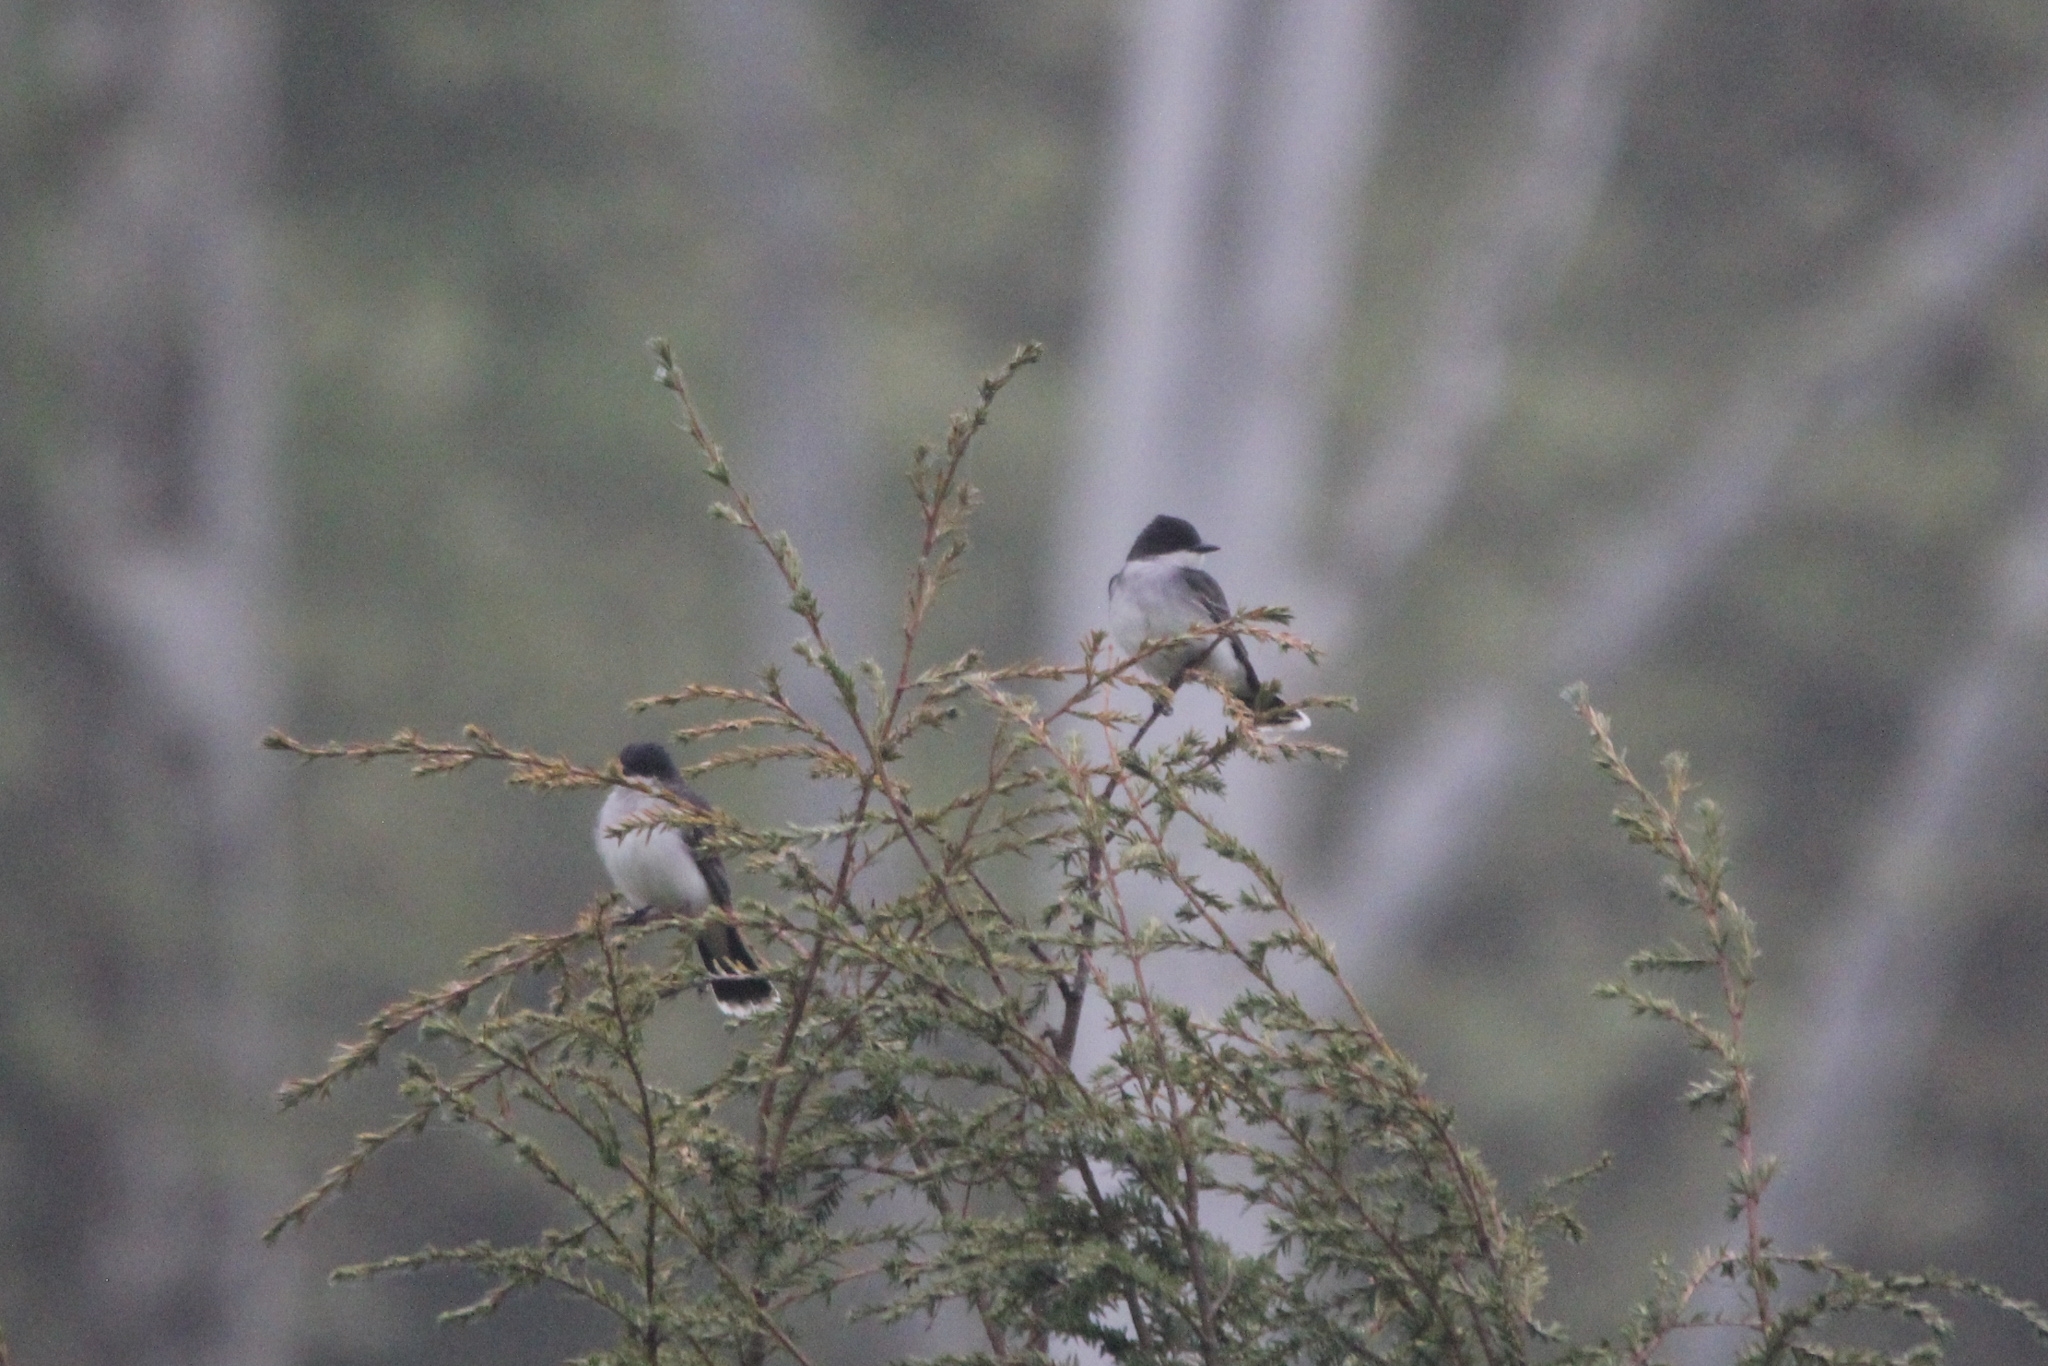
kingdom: Animalia
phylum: Chordata
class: Aves
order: Passeriformes
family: Tyrannidae
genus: Tyrannus
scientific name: Tyrannus tyrannus
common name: Eastern kingbird
